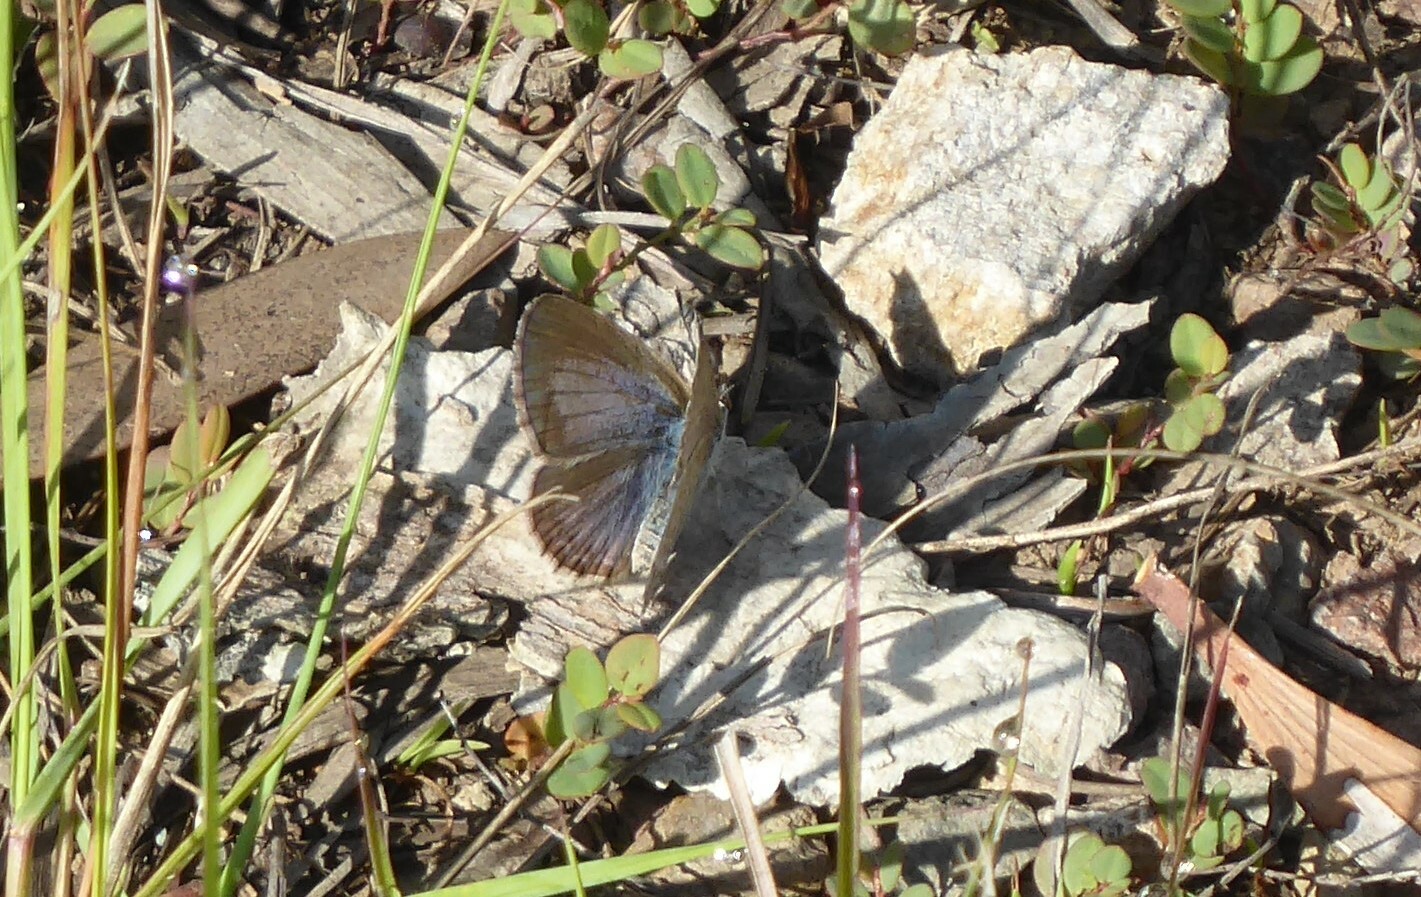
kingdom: Animalia
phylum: Arthropoda
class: Insecta
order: Lepidoptera
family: Lycaenidae
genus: Zizina
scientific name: Zizina labradus
